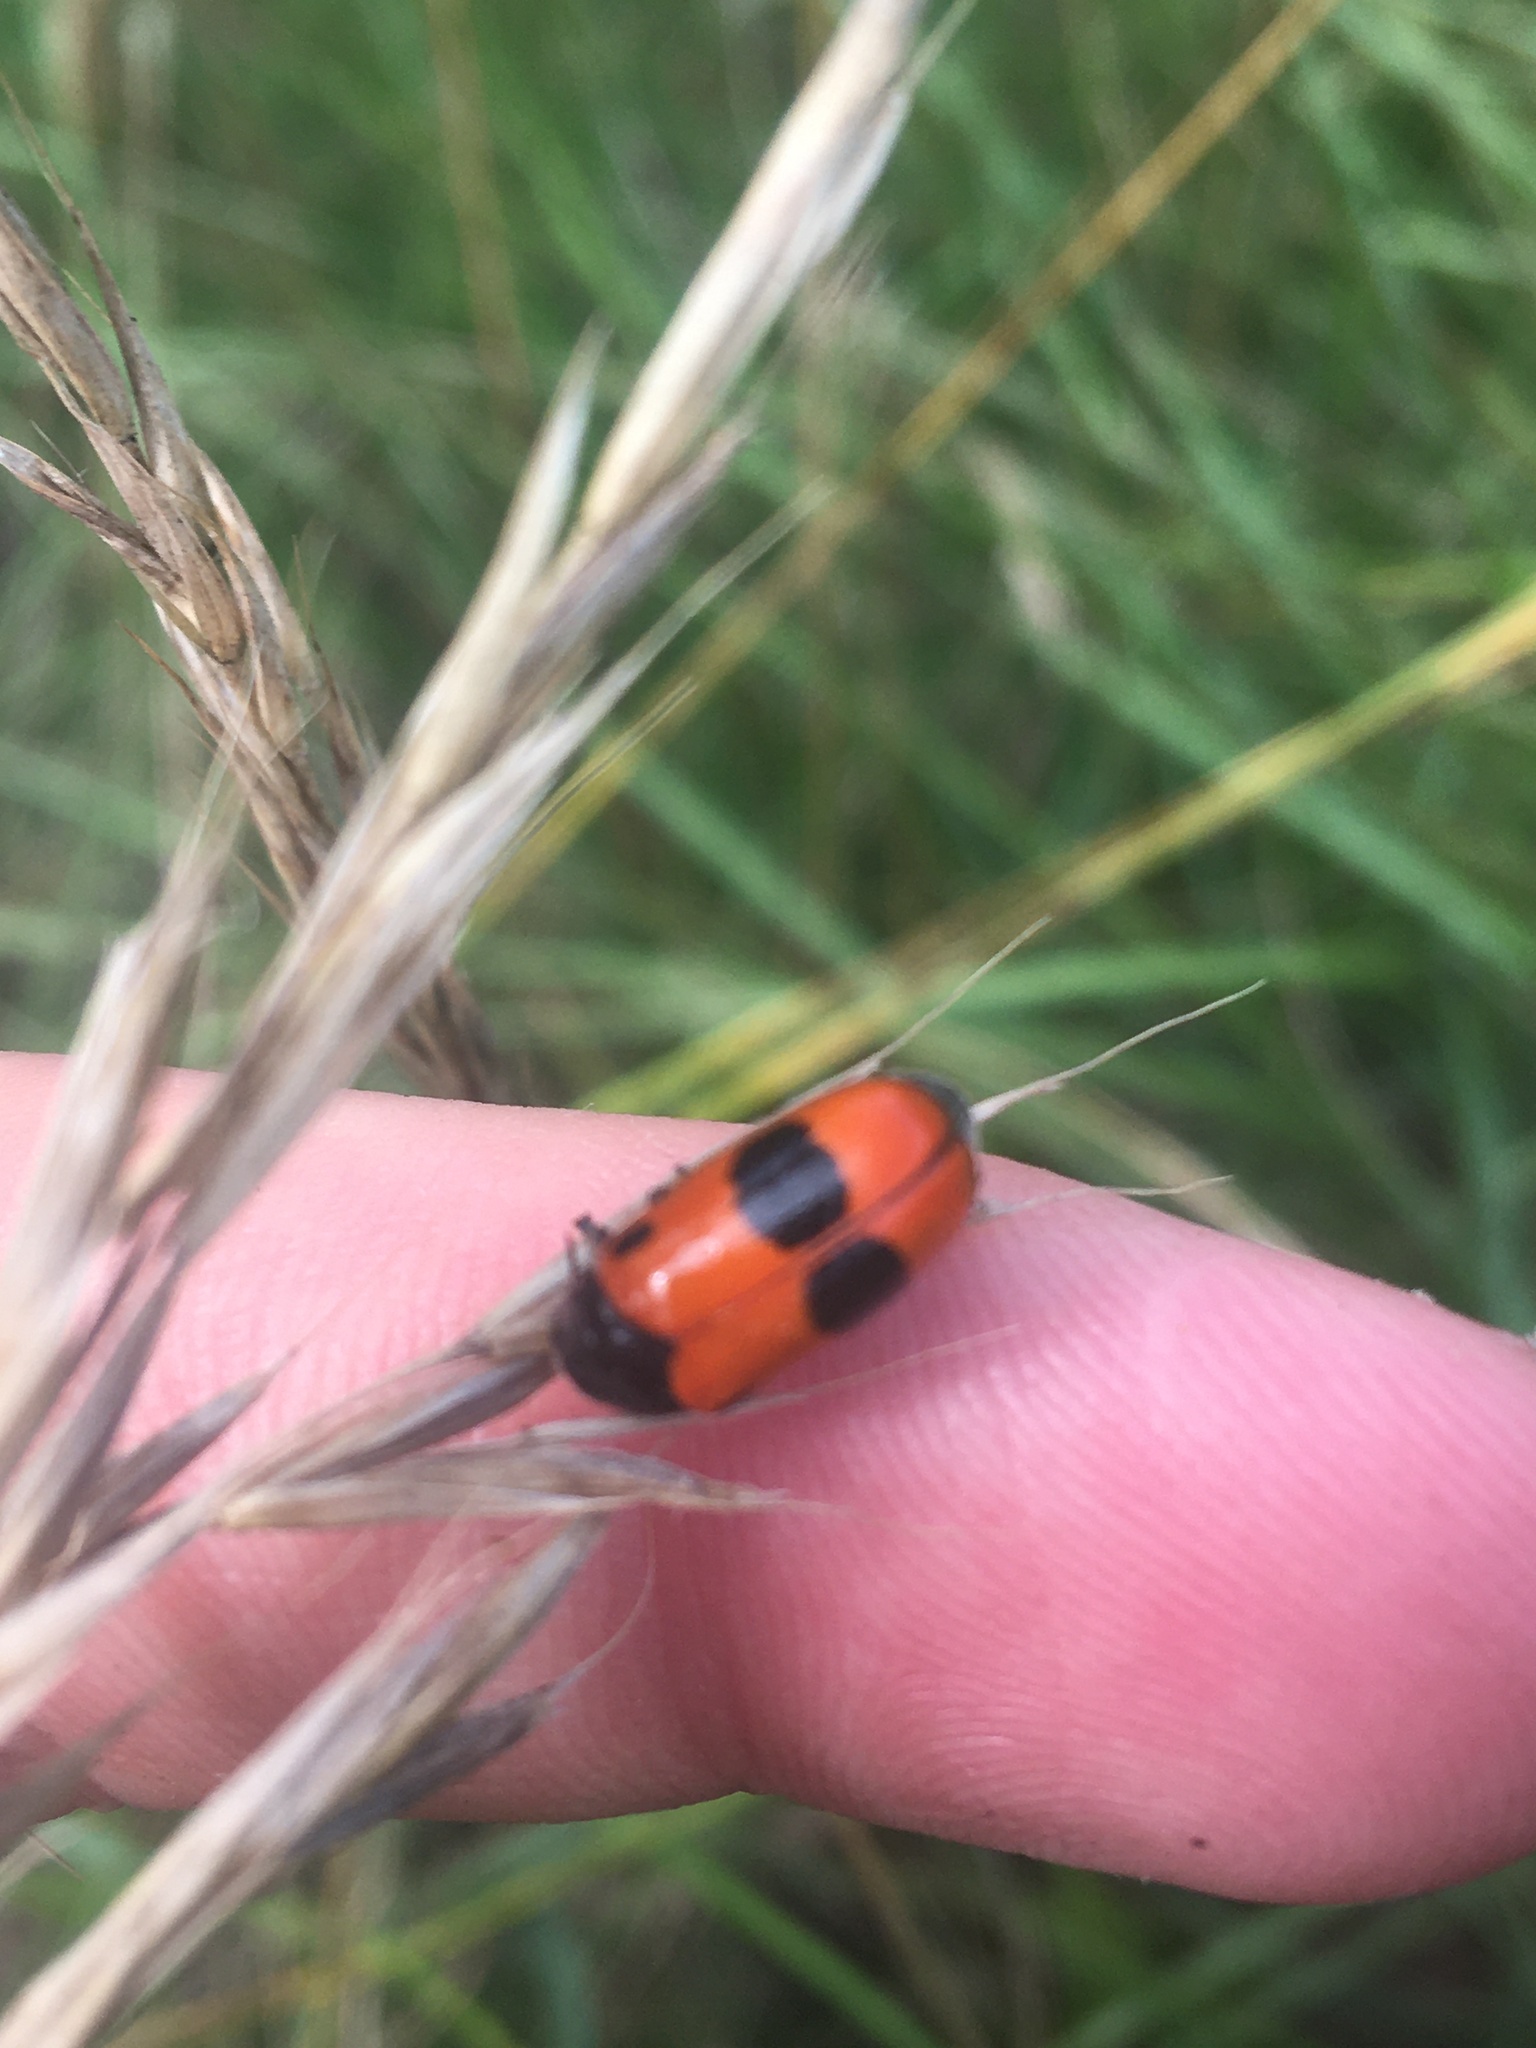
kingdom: Animalia
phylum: Arthropoda
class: Insecta
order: Coleoptera
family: Chrysomelidae
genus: Clytra
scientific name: Clytra laeviuscula
